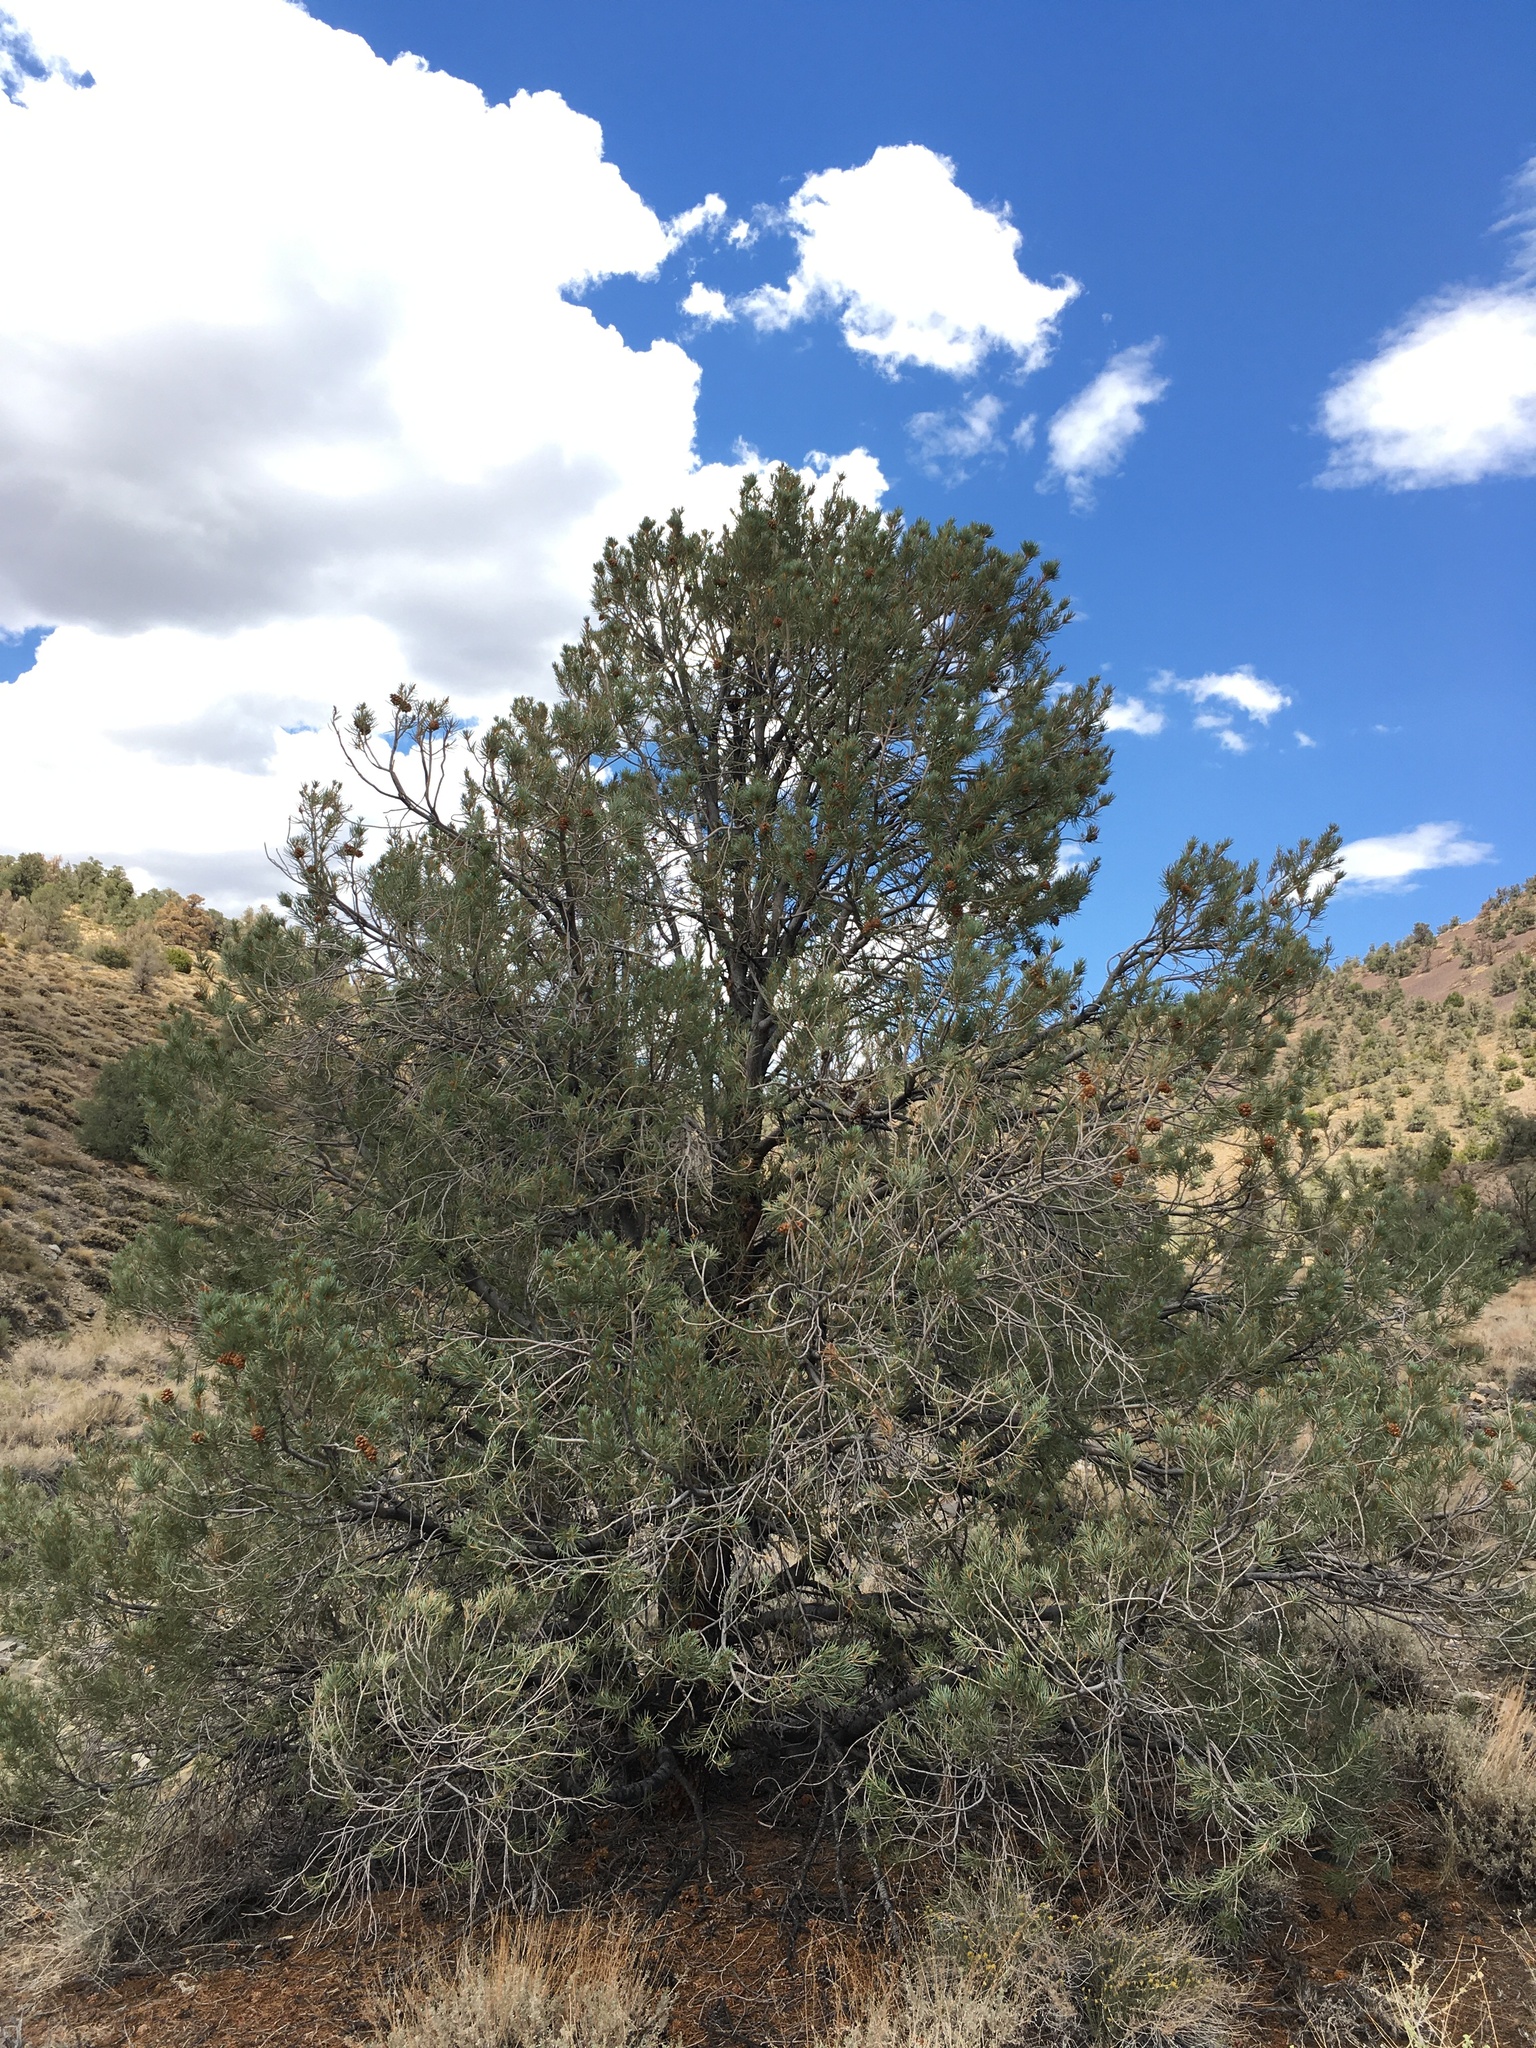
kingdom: Plantae
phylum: Tracheophyta
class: Pinopsida
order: Pinales
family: Pinaceae
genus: Pinus
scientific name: Pinus monophylla
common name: One-leaved nut pine
